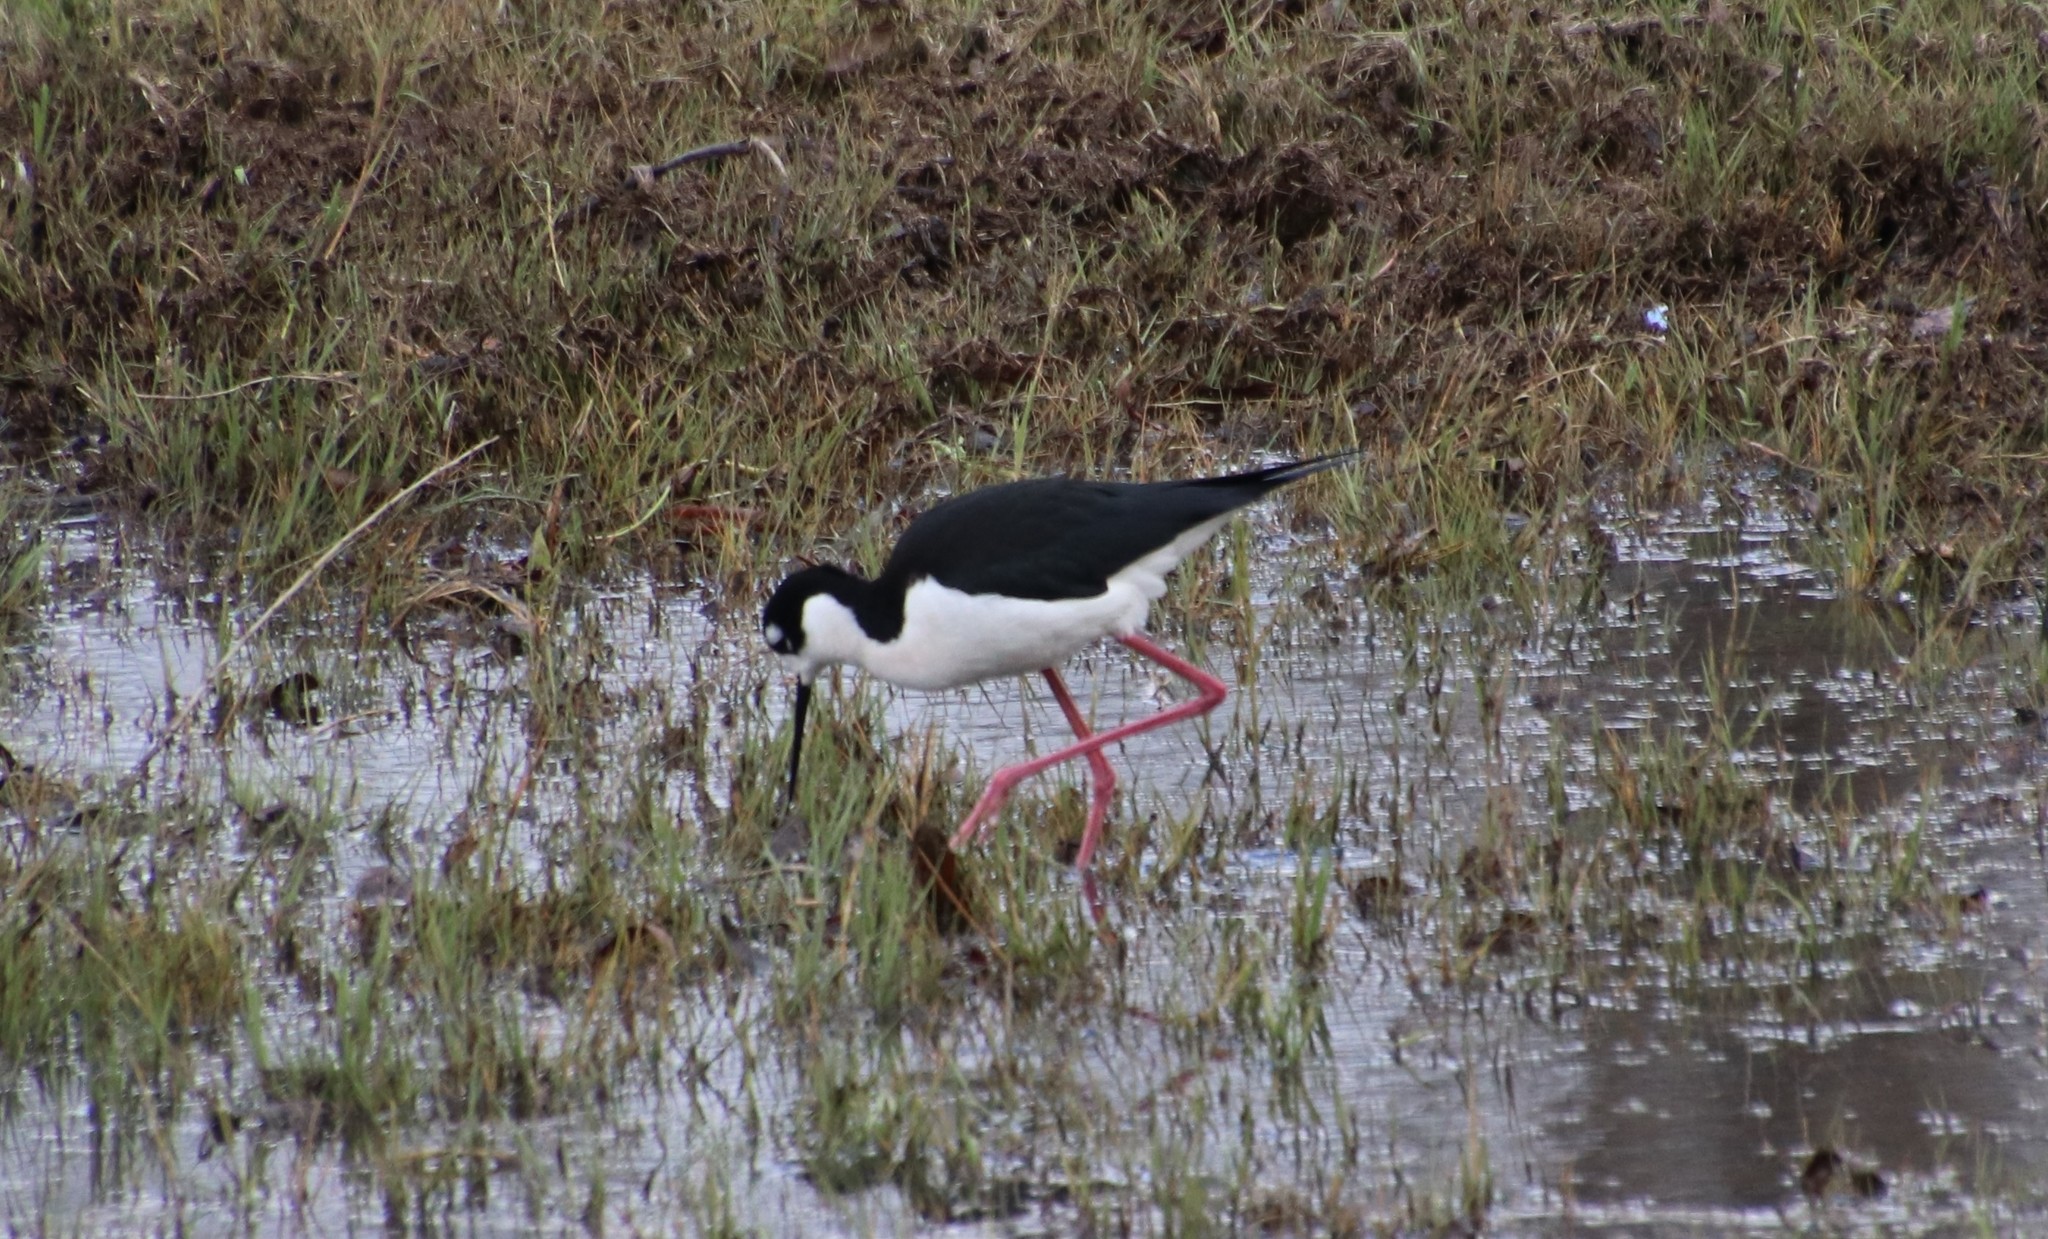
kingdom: Animalia
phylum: Chordata
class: Aves
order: Charadriiformes
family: Recurvirostridae
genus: Himantopus
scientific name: Himantopus mexicanus
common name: Black-necked stilt
